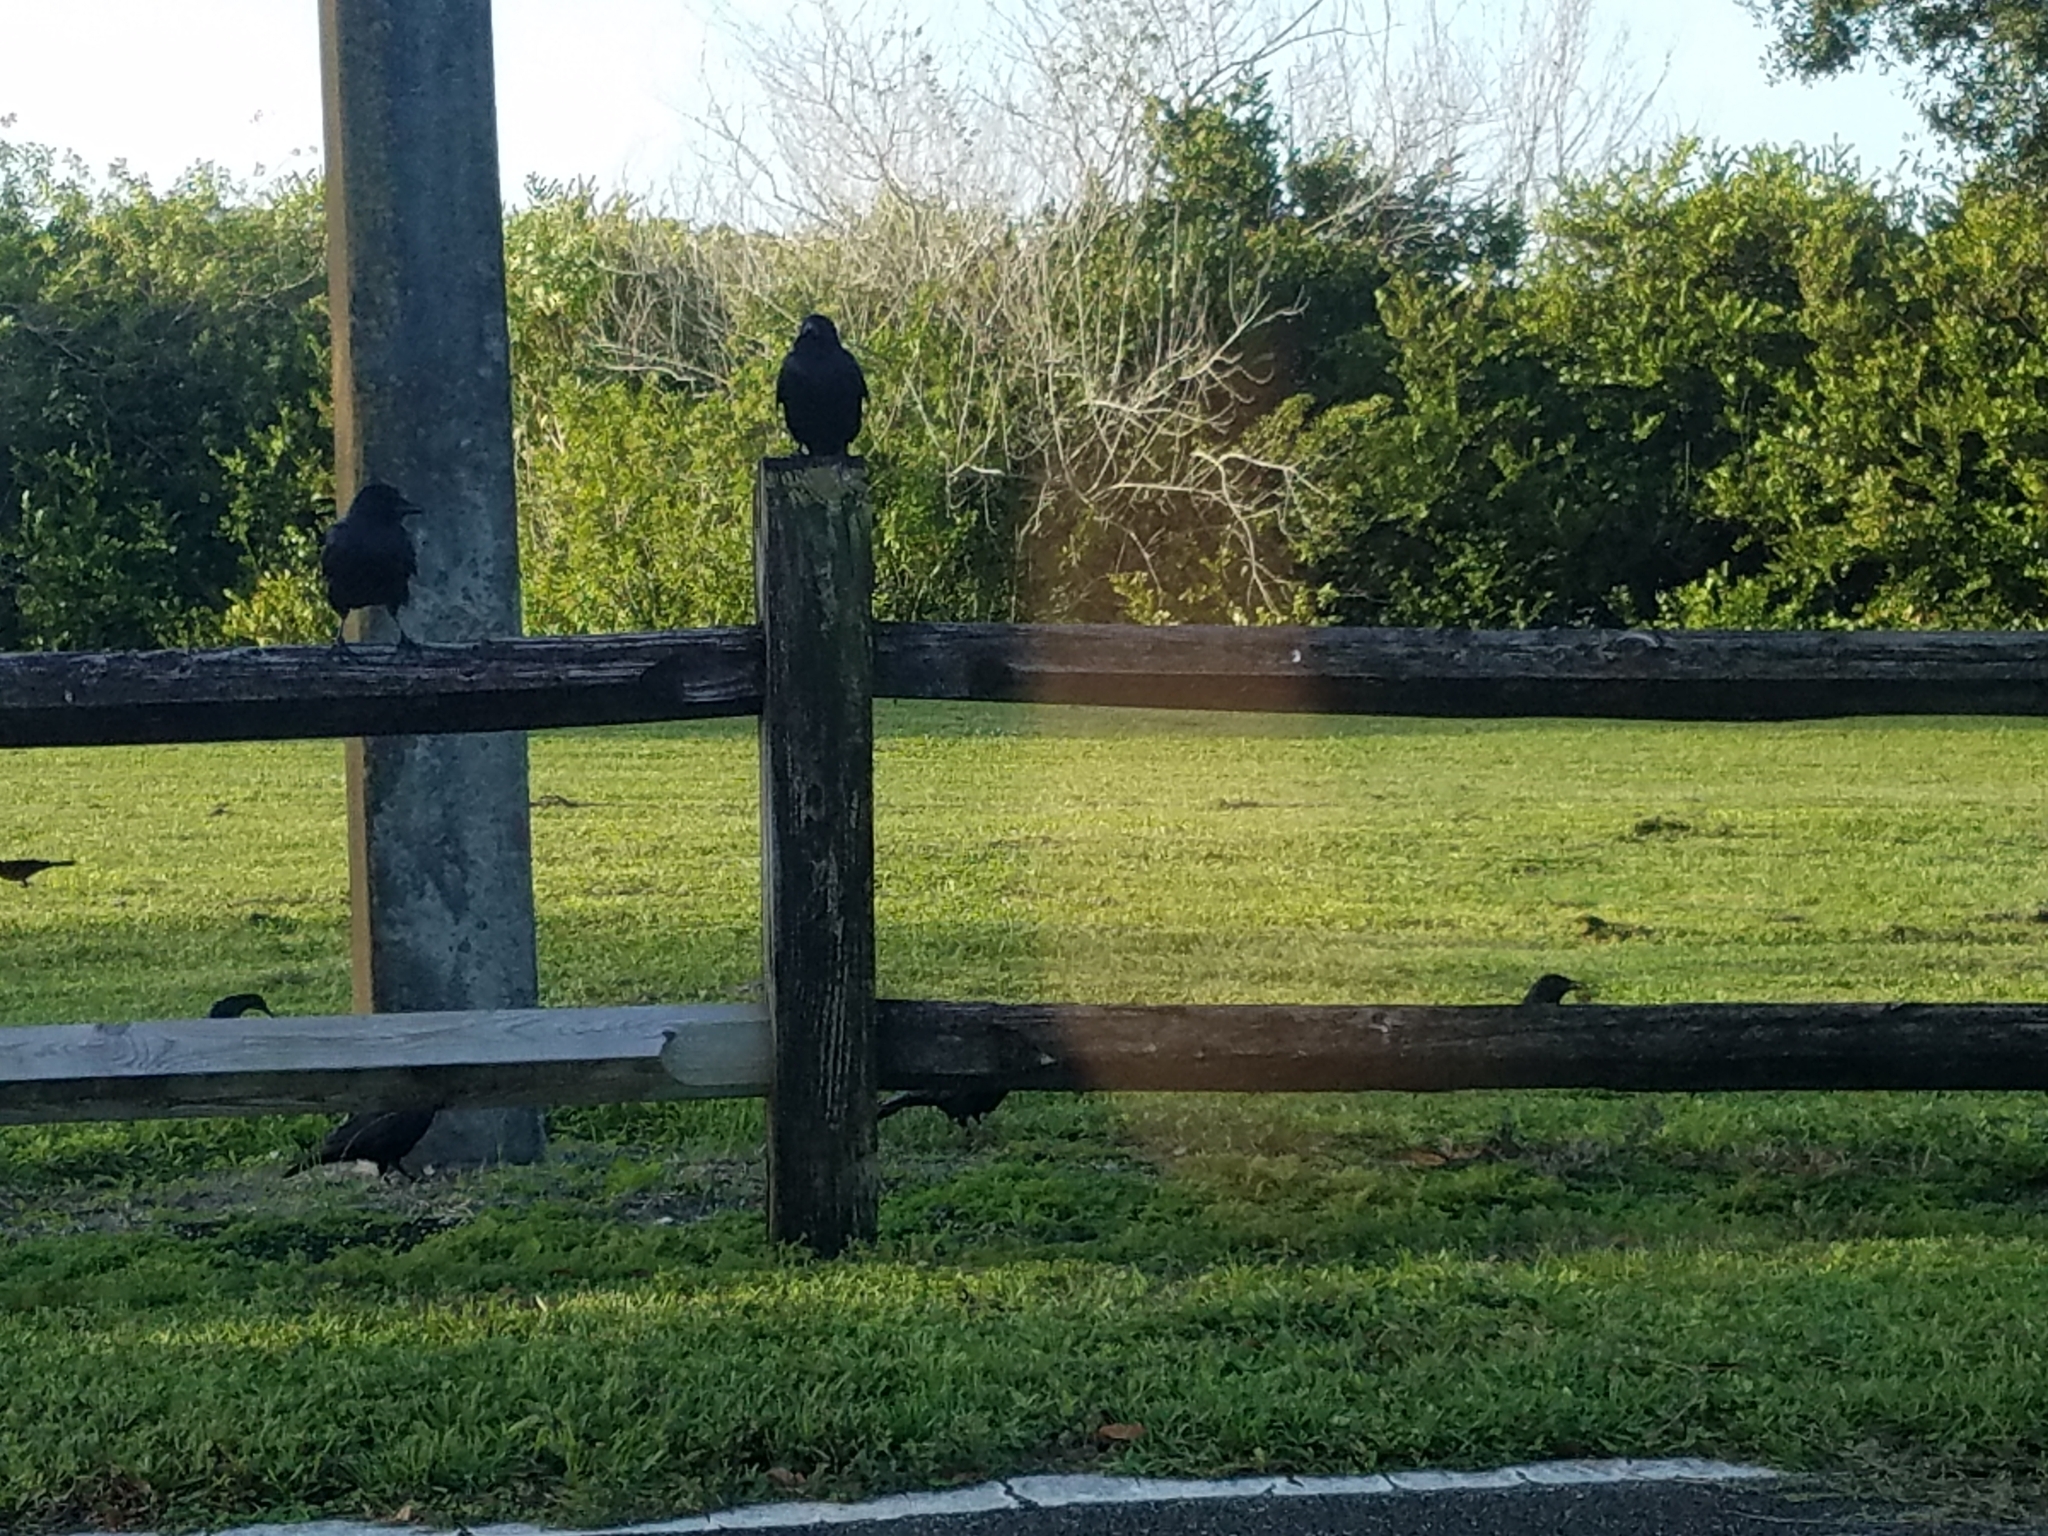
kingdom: Animalia
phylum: Chordata
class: Aves
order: Passeriformes
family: Corvidae
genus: Corvus
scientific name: Corvus ossifragus
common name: Fish crow
